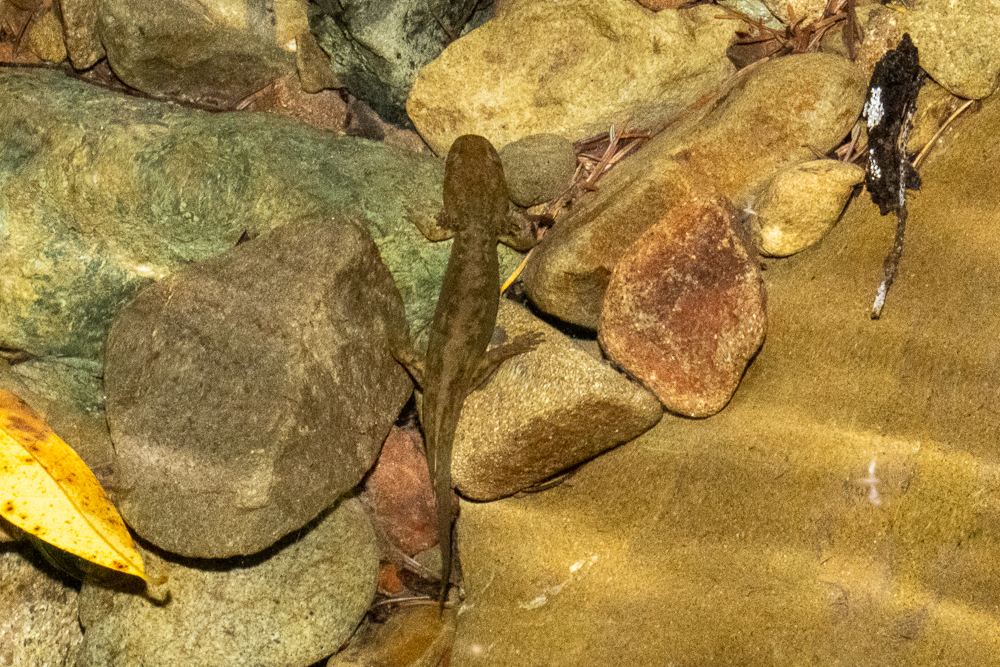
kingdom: Animalia
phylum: Chordata
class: Amphibia
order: Caudata
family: Ambystomatidae
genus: Dicamptodon
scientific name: Dicamptodon ensatus
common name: California giant salamander
